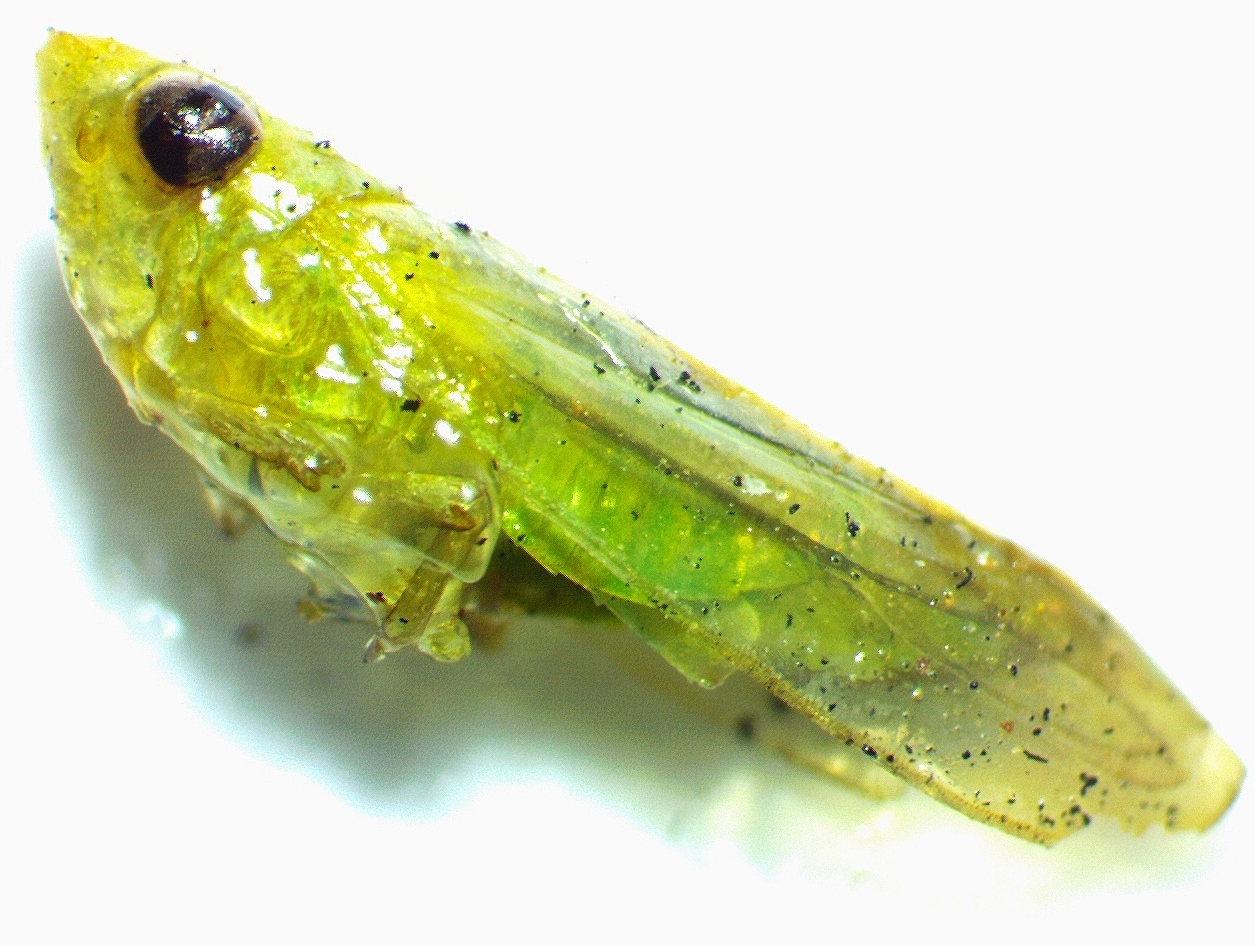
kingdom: Animalia
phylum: Arthropoda
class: Insecta
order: Hemiptera
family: Cicadellidae
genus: Neocoelidia
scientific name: Neocoelidia tuberculata
